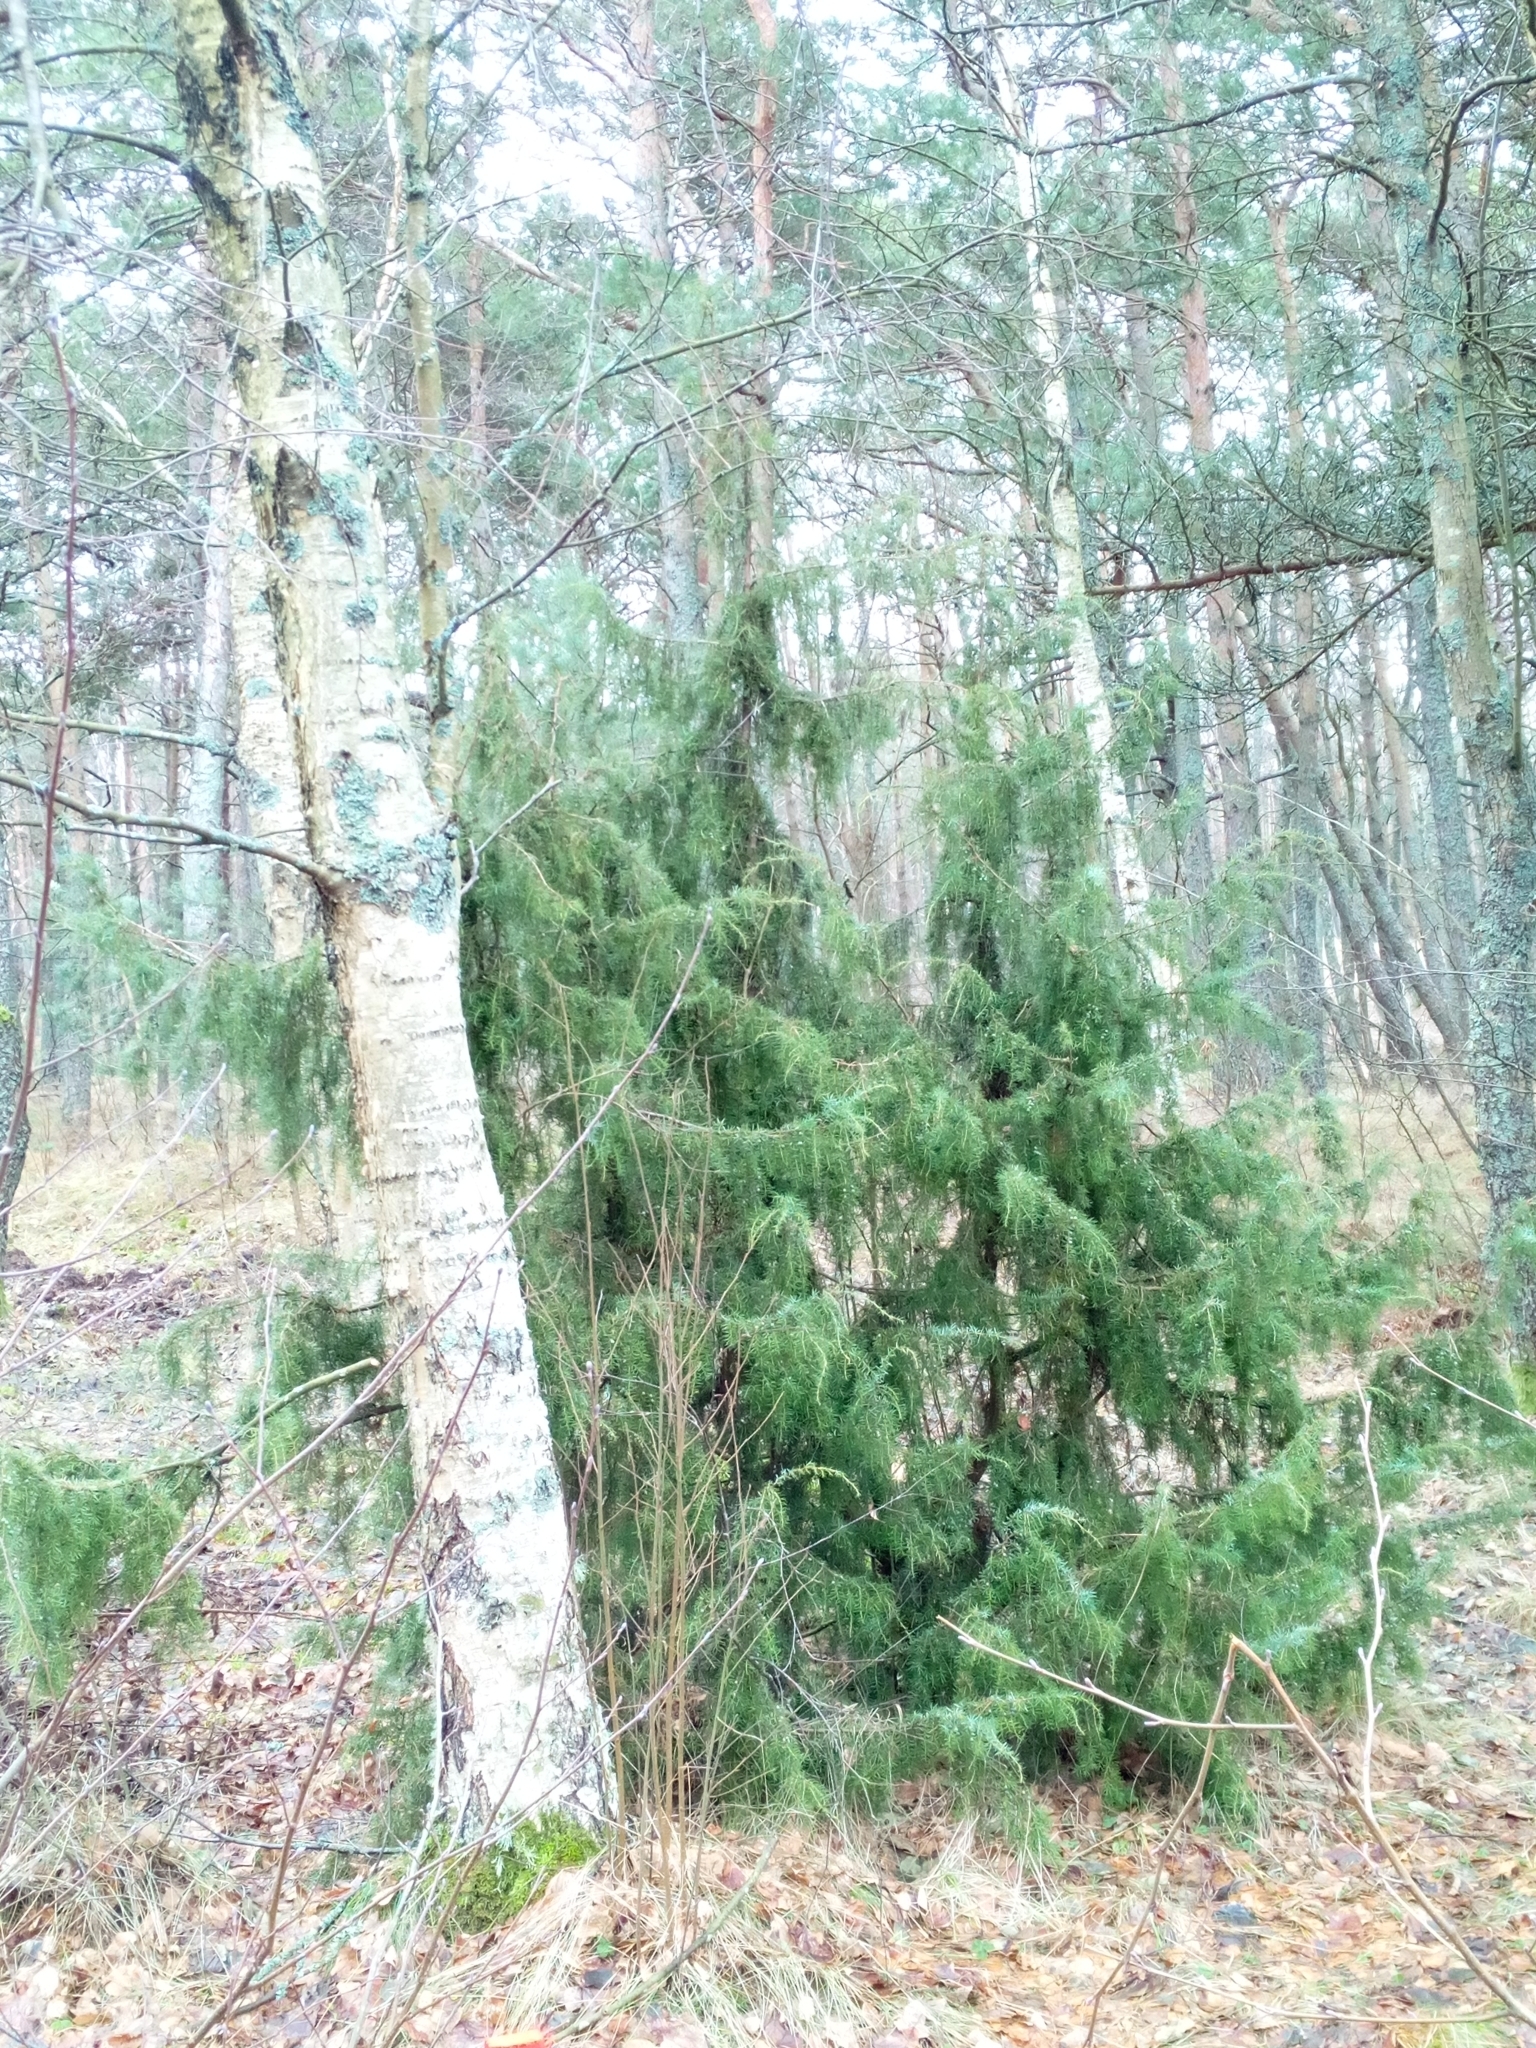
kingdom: Plantae
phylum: Tracheophyta
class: Pinopsida
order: Pinales
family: Cupressaceae
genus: Juniperus
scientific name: Juniperus communis
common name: Common juniper
